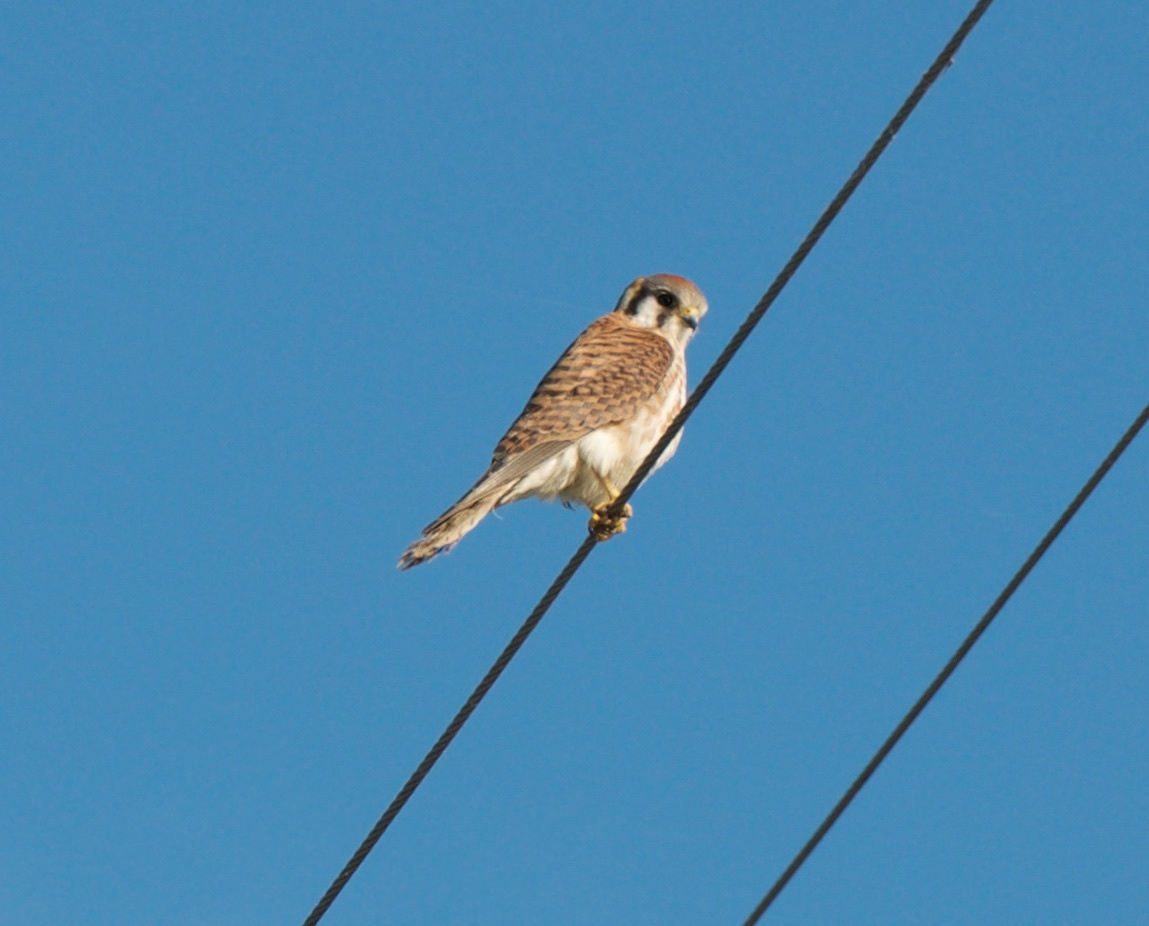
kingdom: Animalia
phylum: Chordata
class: Aves
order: Falconiformes
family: Falconidae
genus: Falco
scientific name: Falco sparverius
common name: American kestrel
